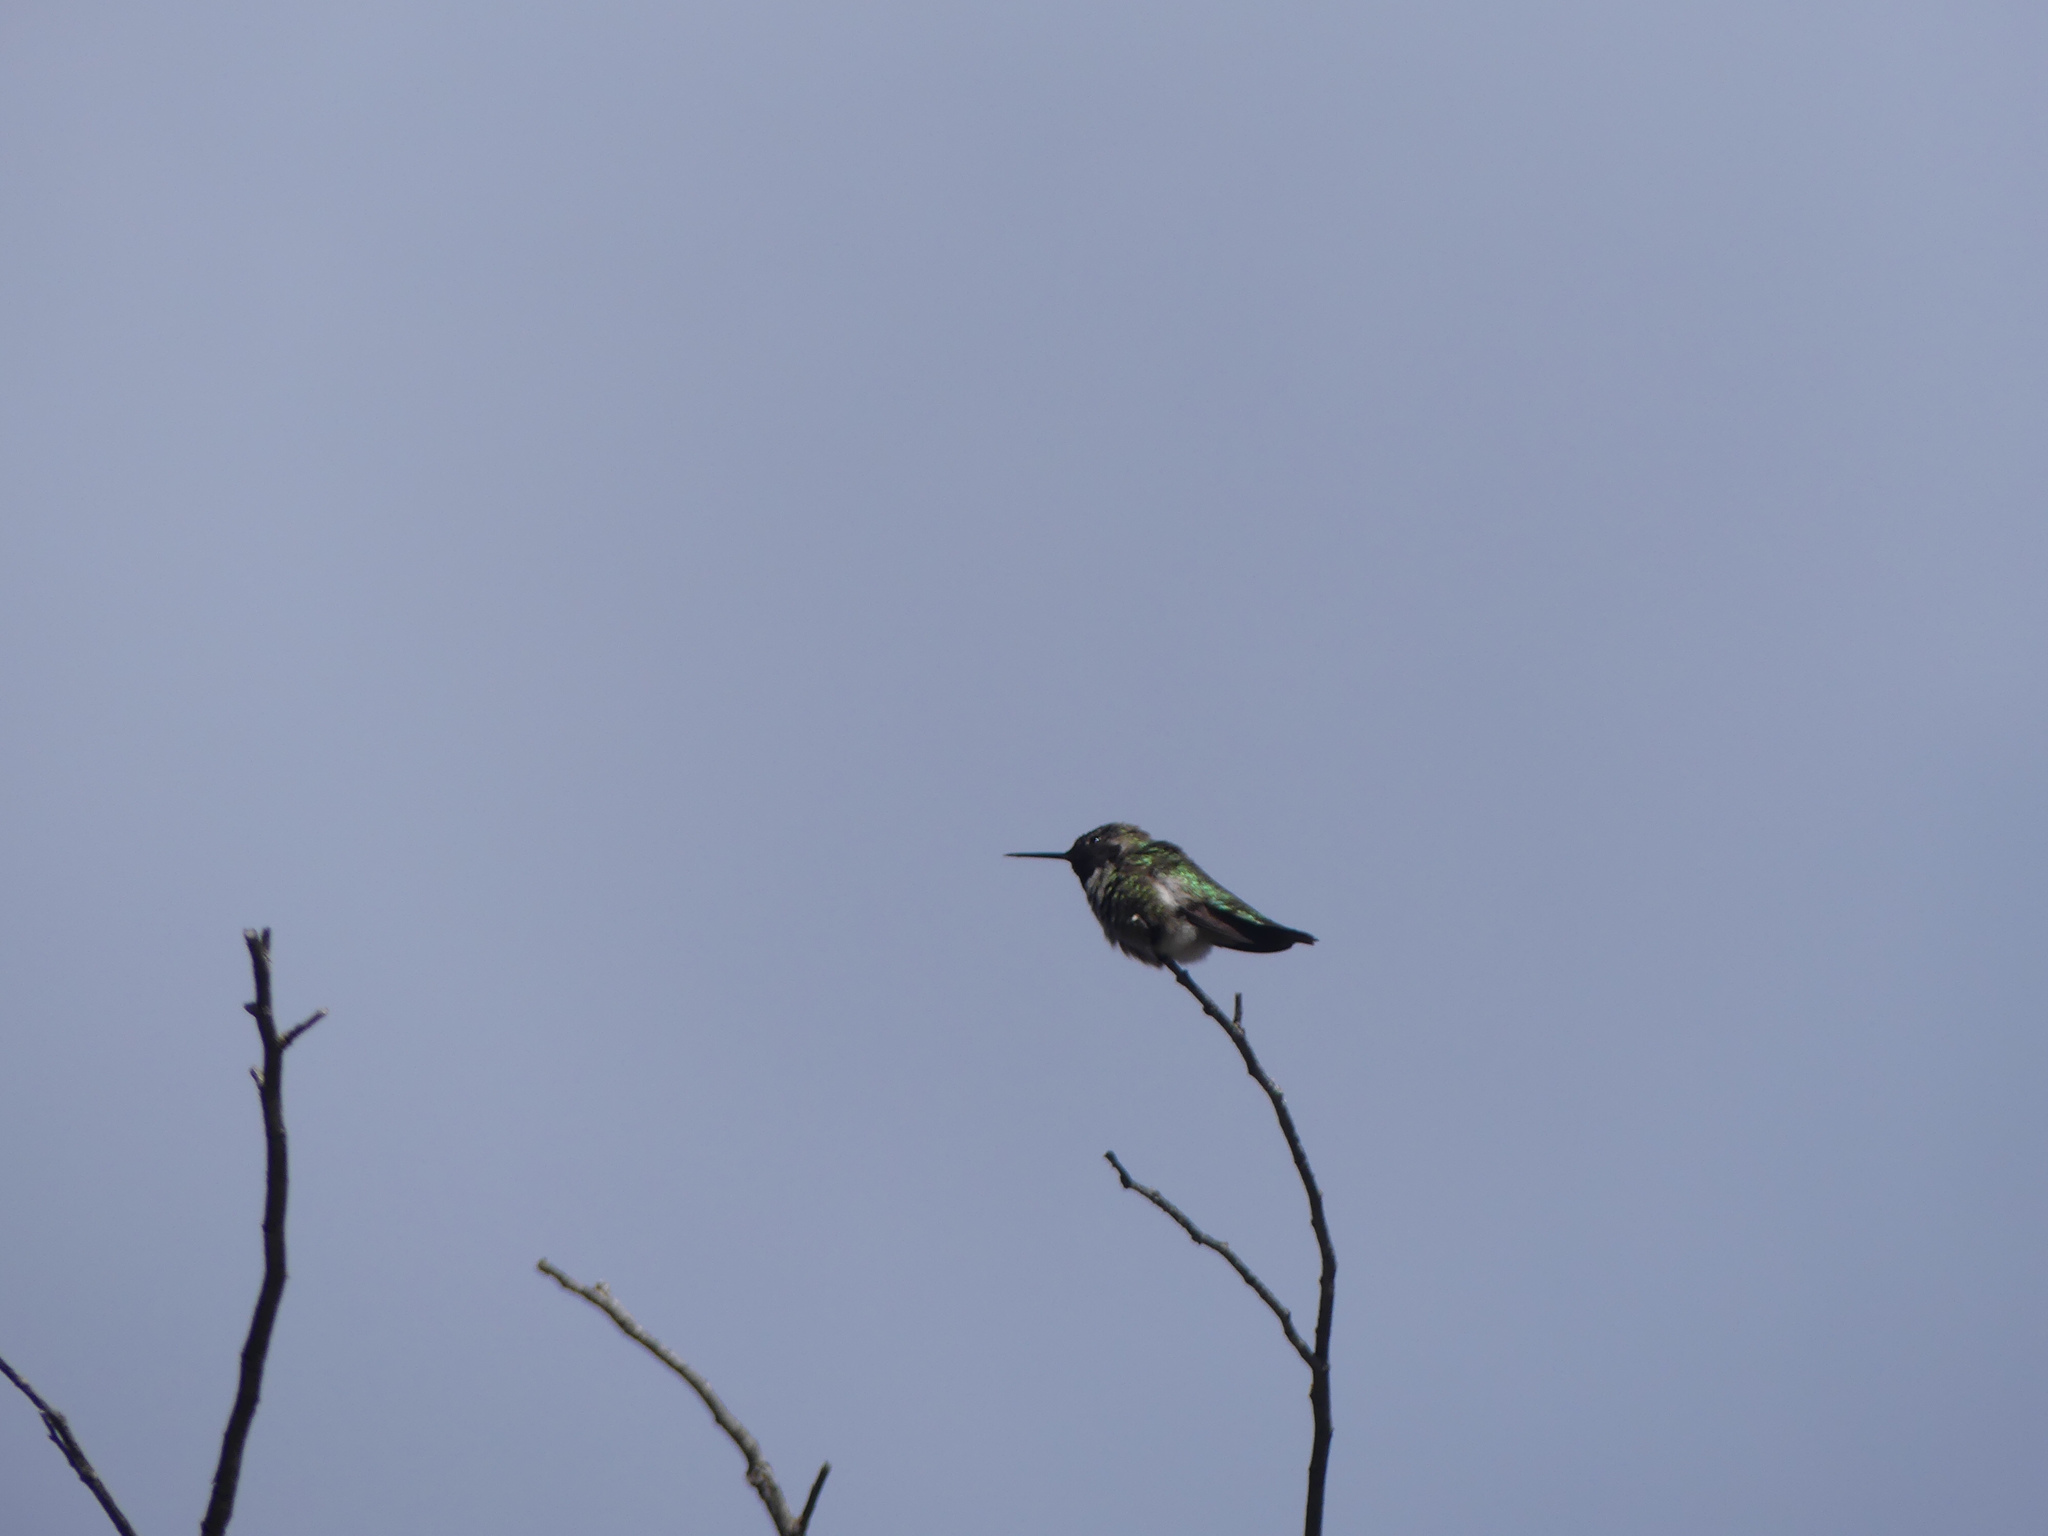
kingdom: Animalia
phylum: Chordata
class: Aves
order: Apodiformes
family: Trochilidae
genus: Calypte
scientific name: Calypte anna
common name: Anna's hummingbird
